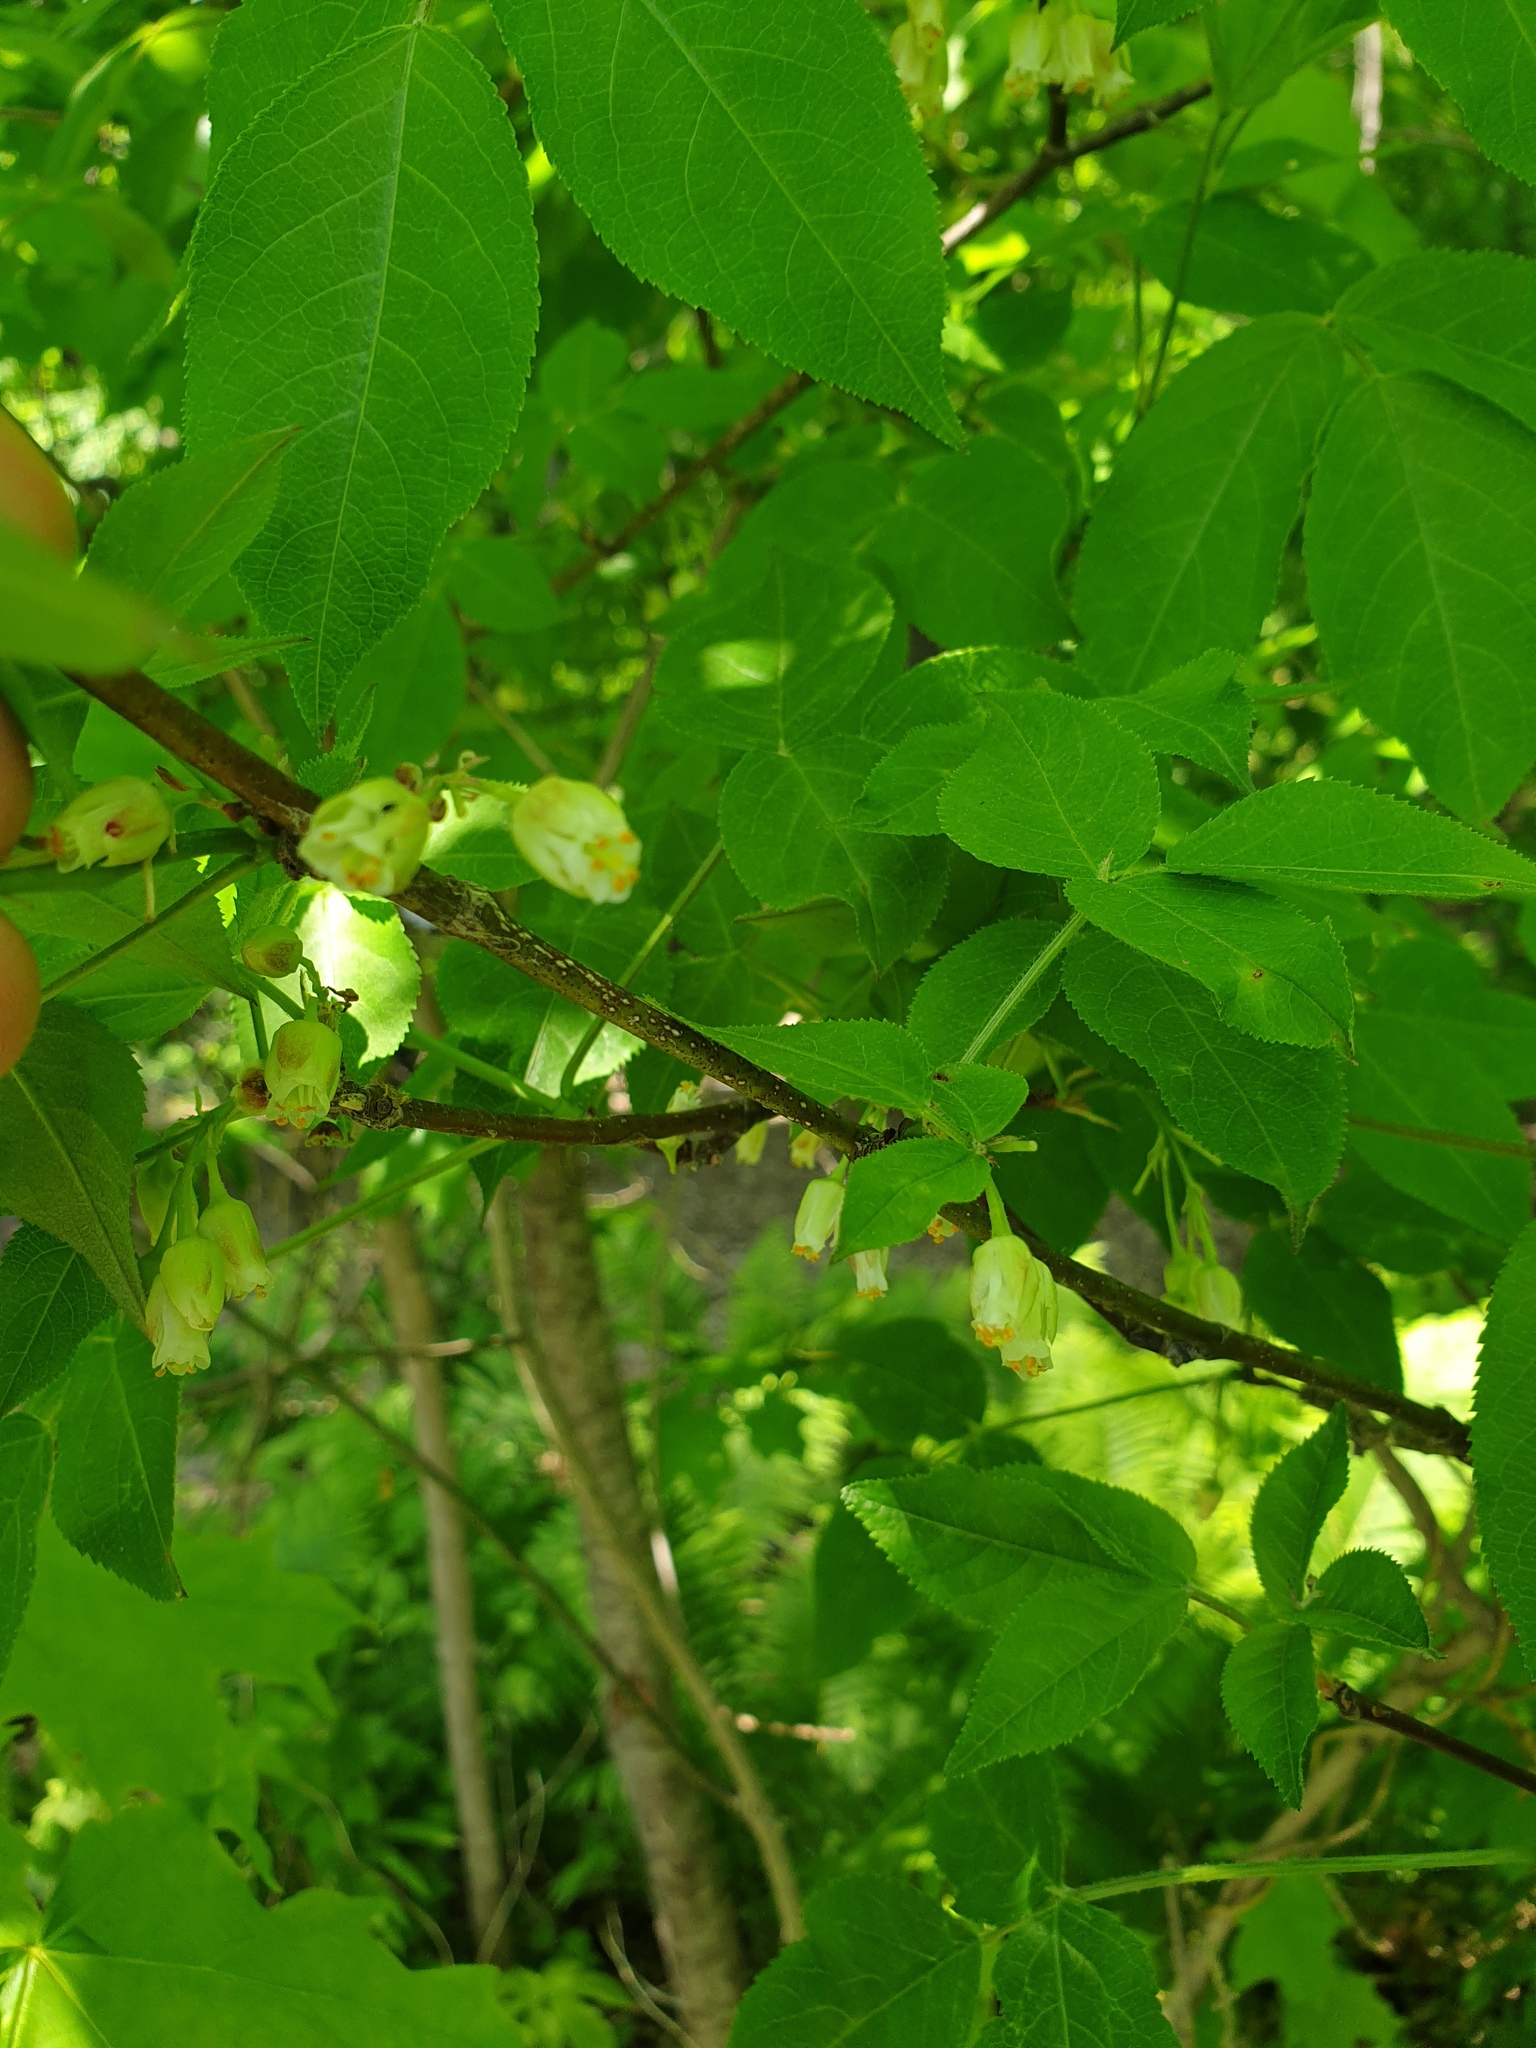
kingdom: Plantae
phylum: Tracheophyta
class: Magnoliopsida
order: Crossosomatales
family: Staphyleaceae
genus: Staphylea
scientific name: Staphylea trifolia
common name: American bladdernut
